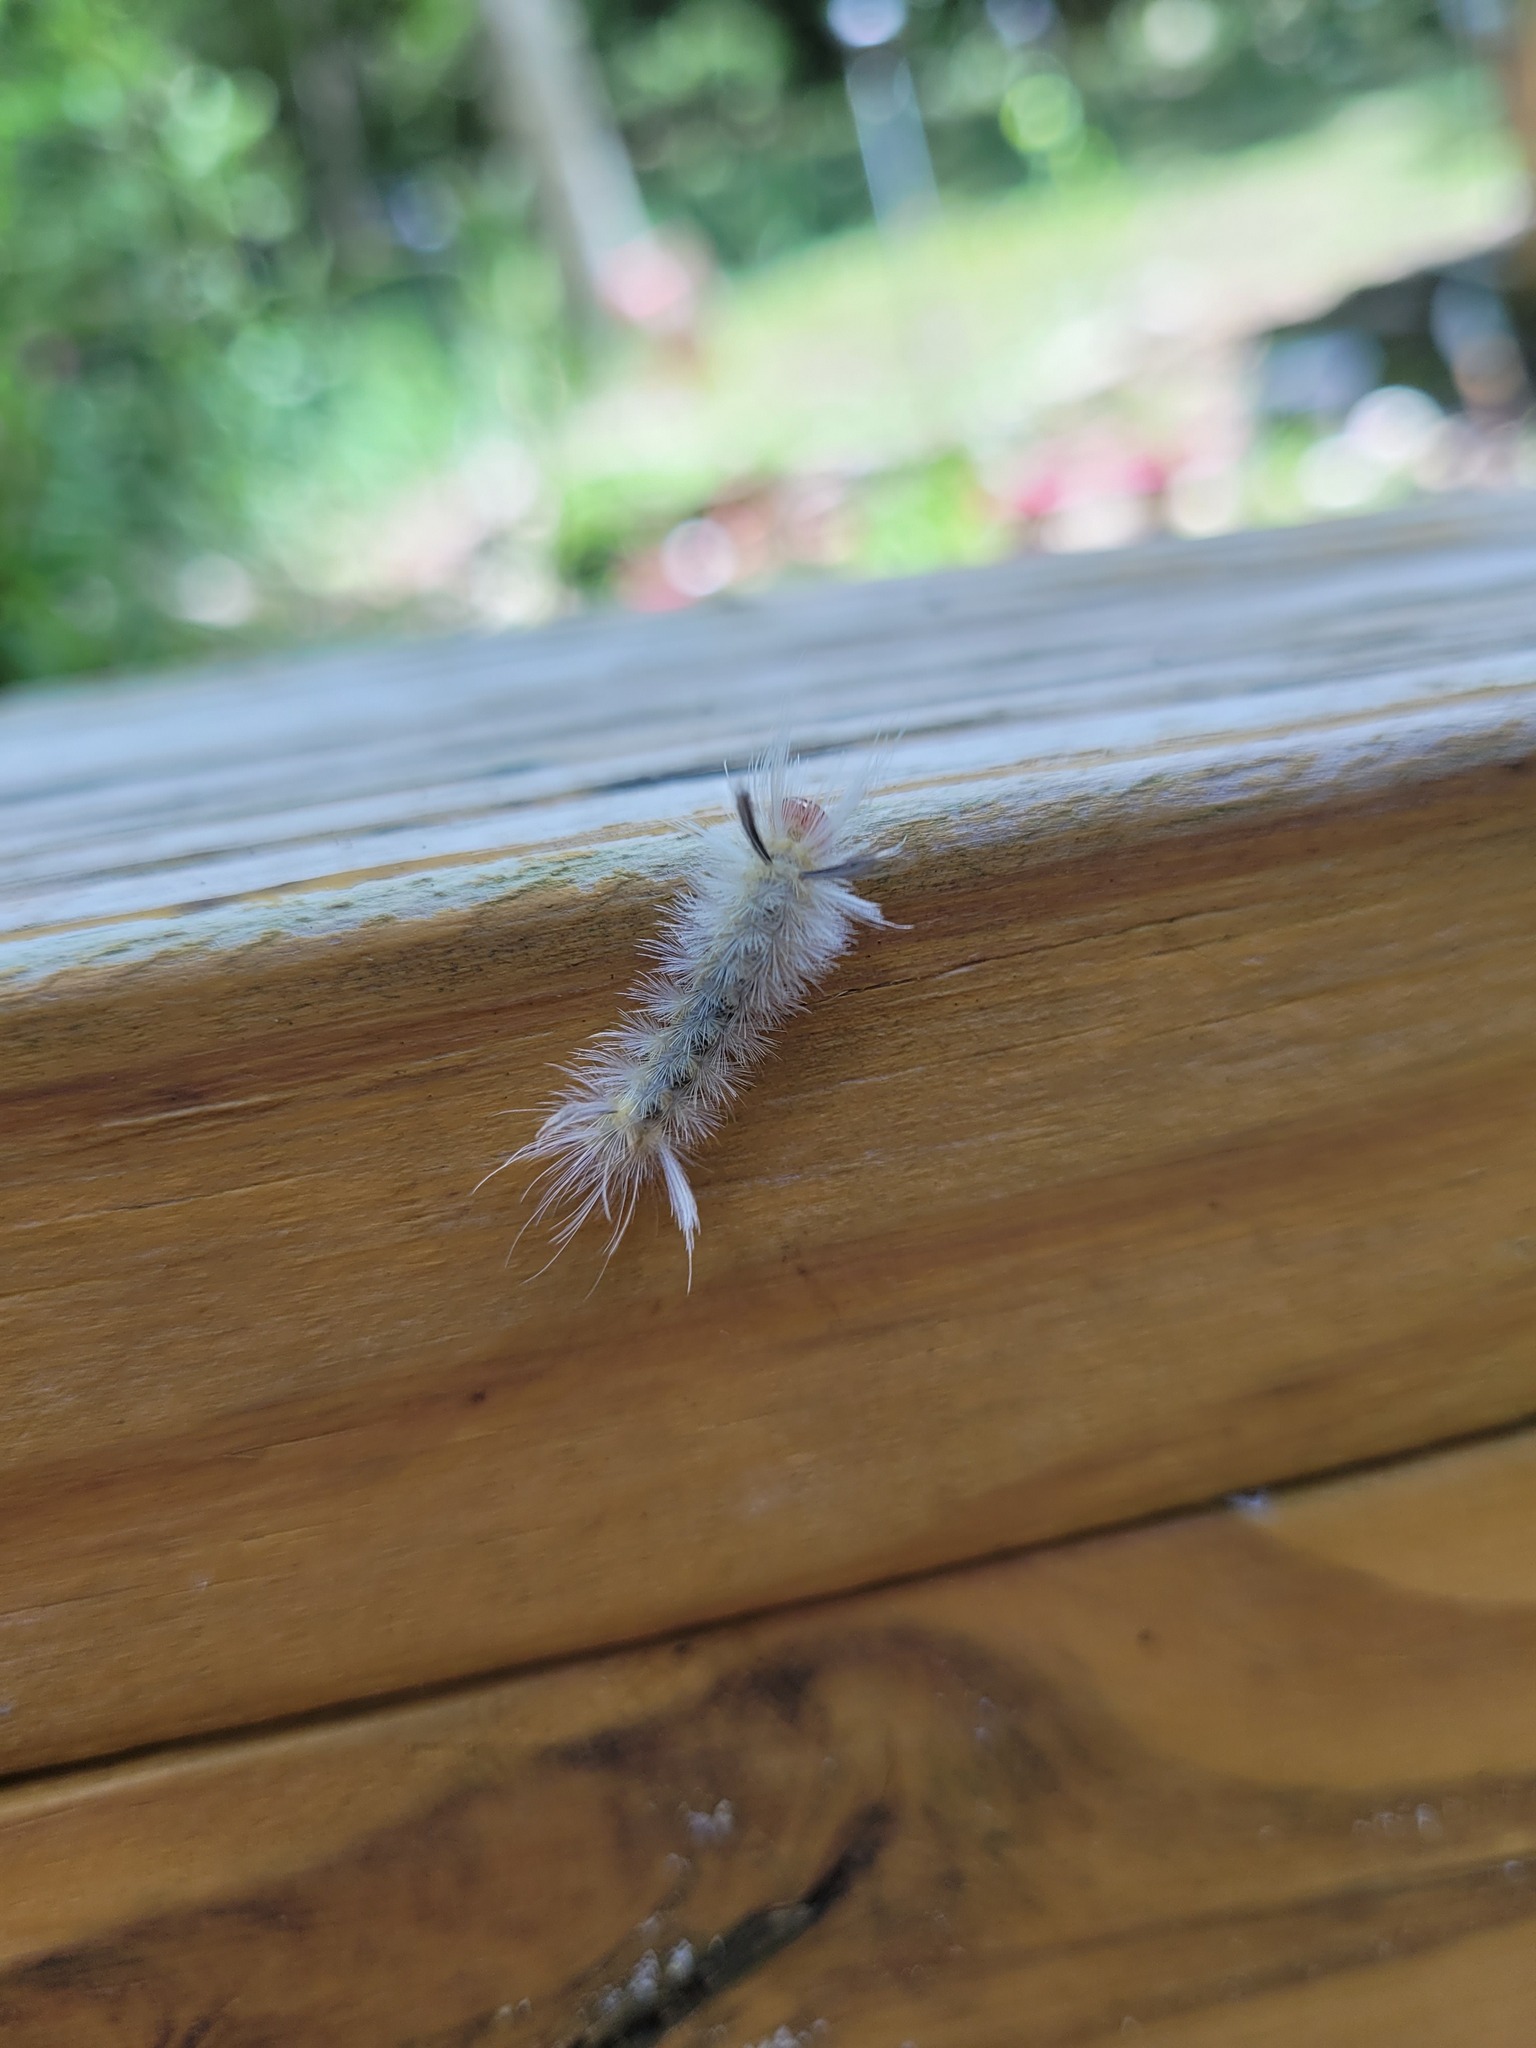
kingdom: Animalia
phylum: Arthropoda
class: Insecta
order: Lepidoptera
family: Erebidae
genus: Halysidota
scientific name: Halysidota tessellaris
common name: Banded tussock moth
